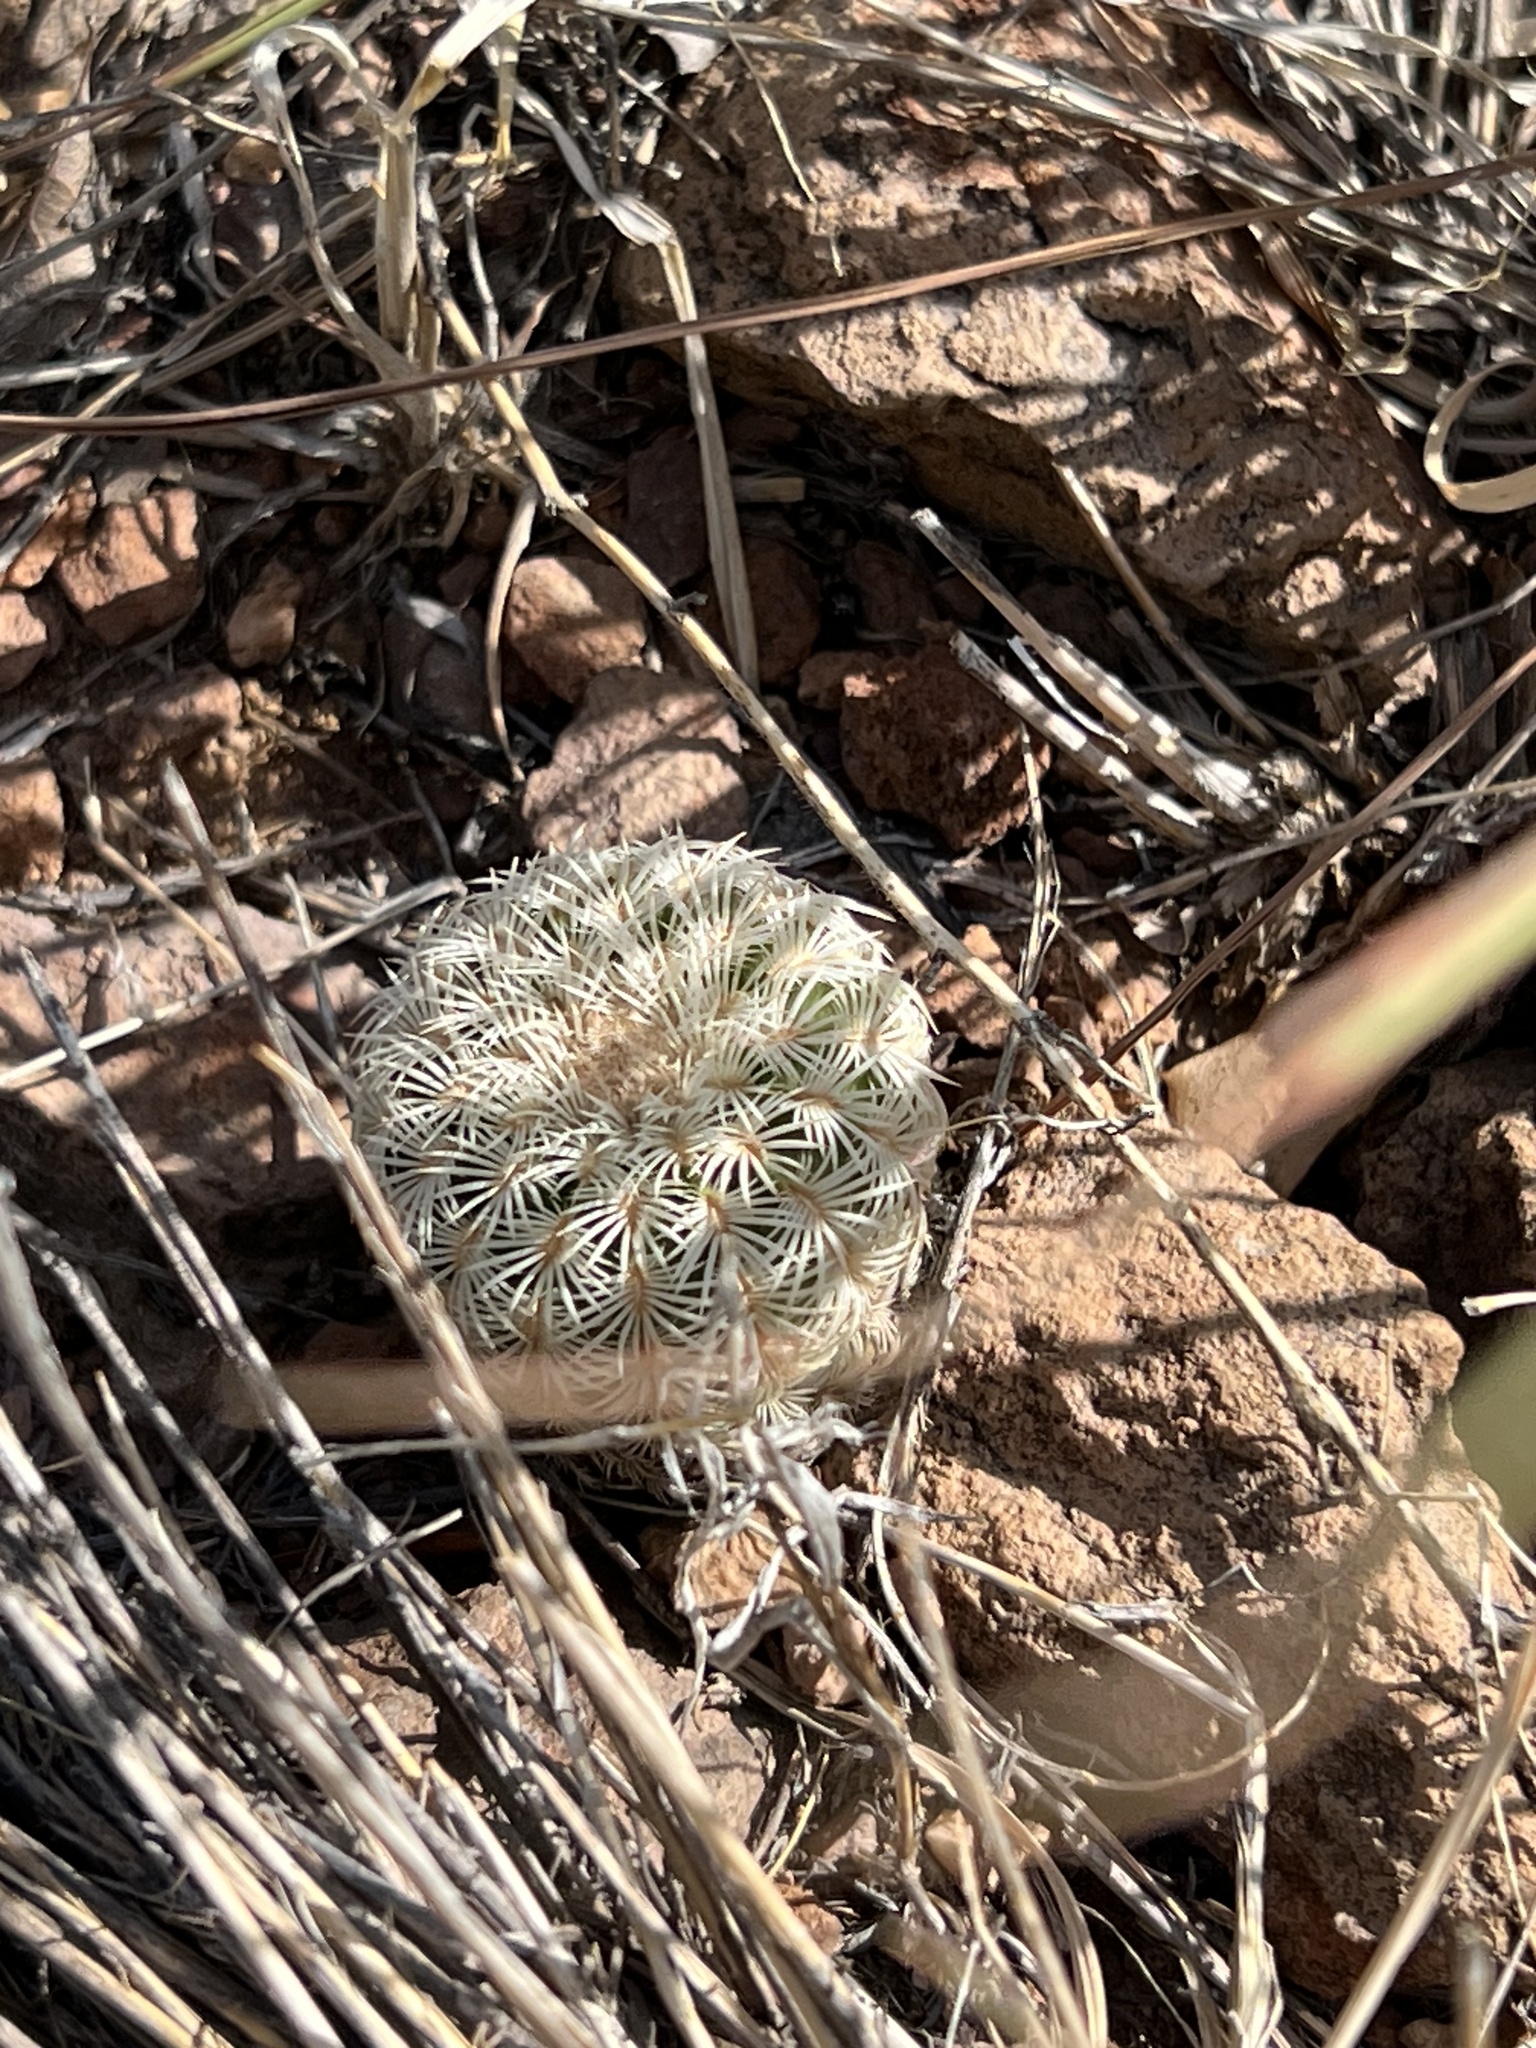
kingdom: Plantae
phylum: Tracheophyta
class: Magnoliopsida
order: Caryophyllales
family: Cactaceae
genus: Echinocereus
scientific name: Echinocereus rigidissimus
